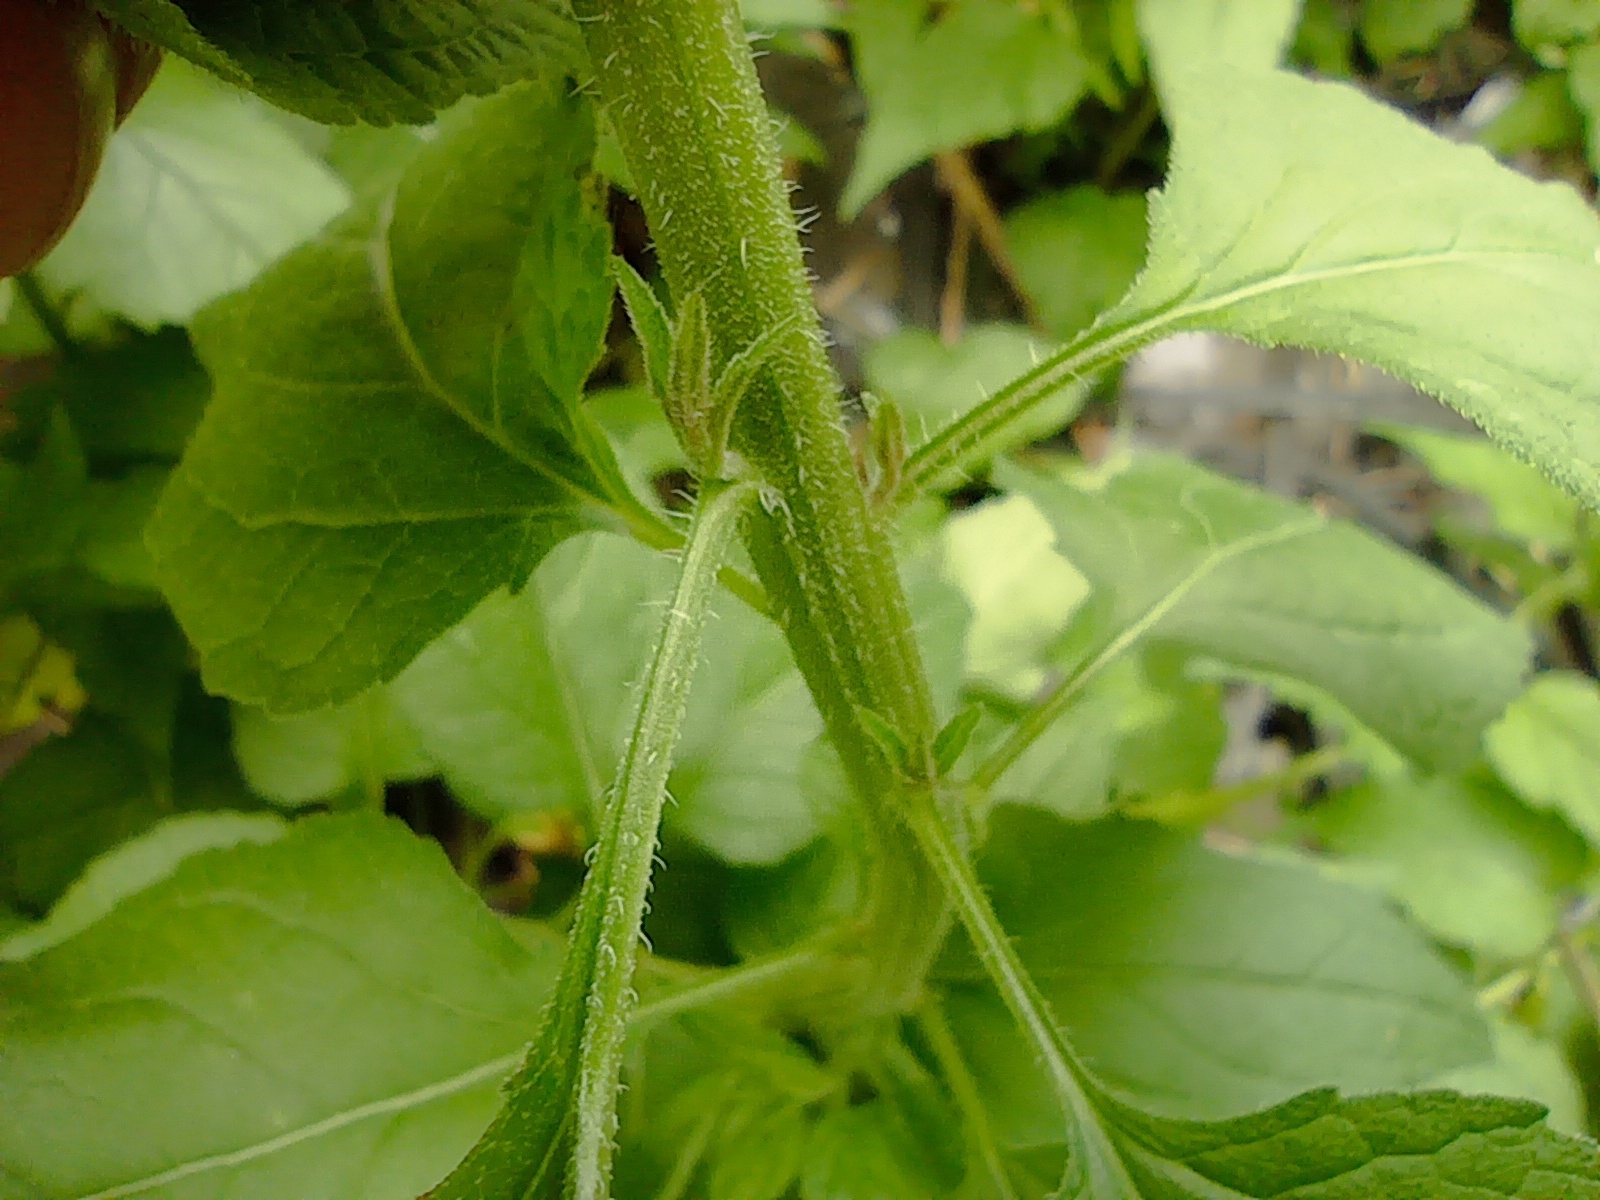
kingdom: Plantae
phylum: Tracheophyta
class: Magnoliopsida
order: Asterales
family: Campanulaceae
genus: Campanula
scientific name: Campanula rapunculoides
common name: Creeping bellflower
